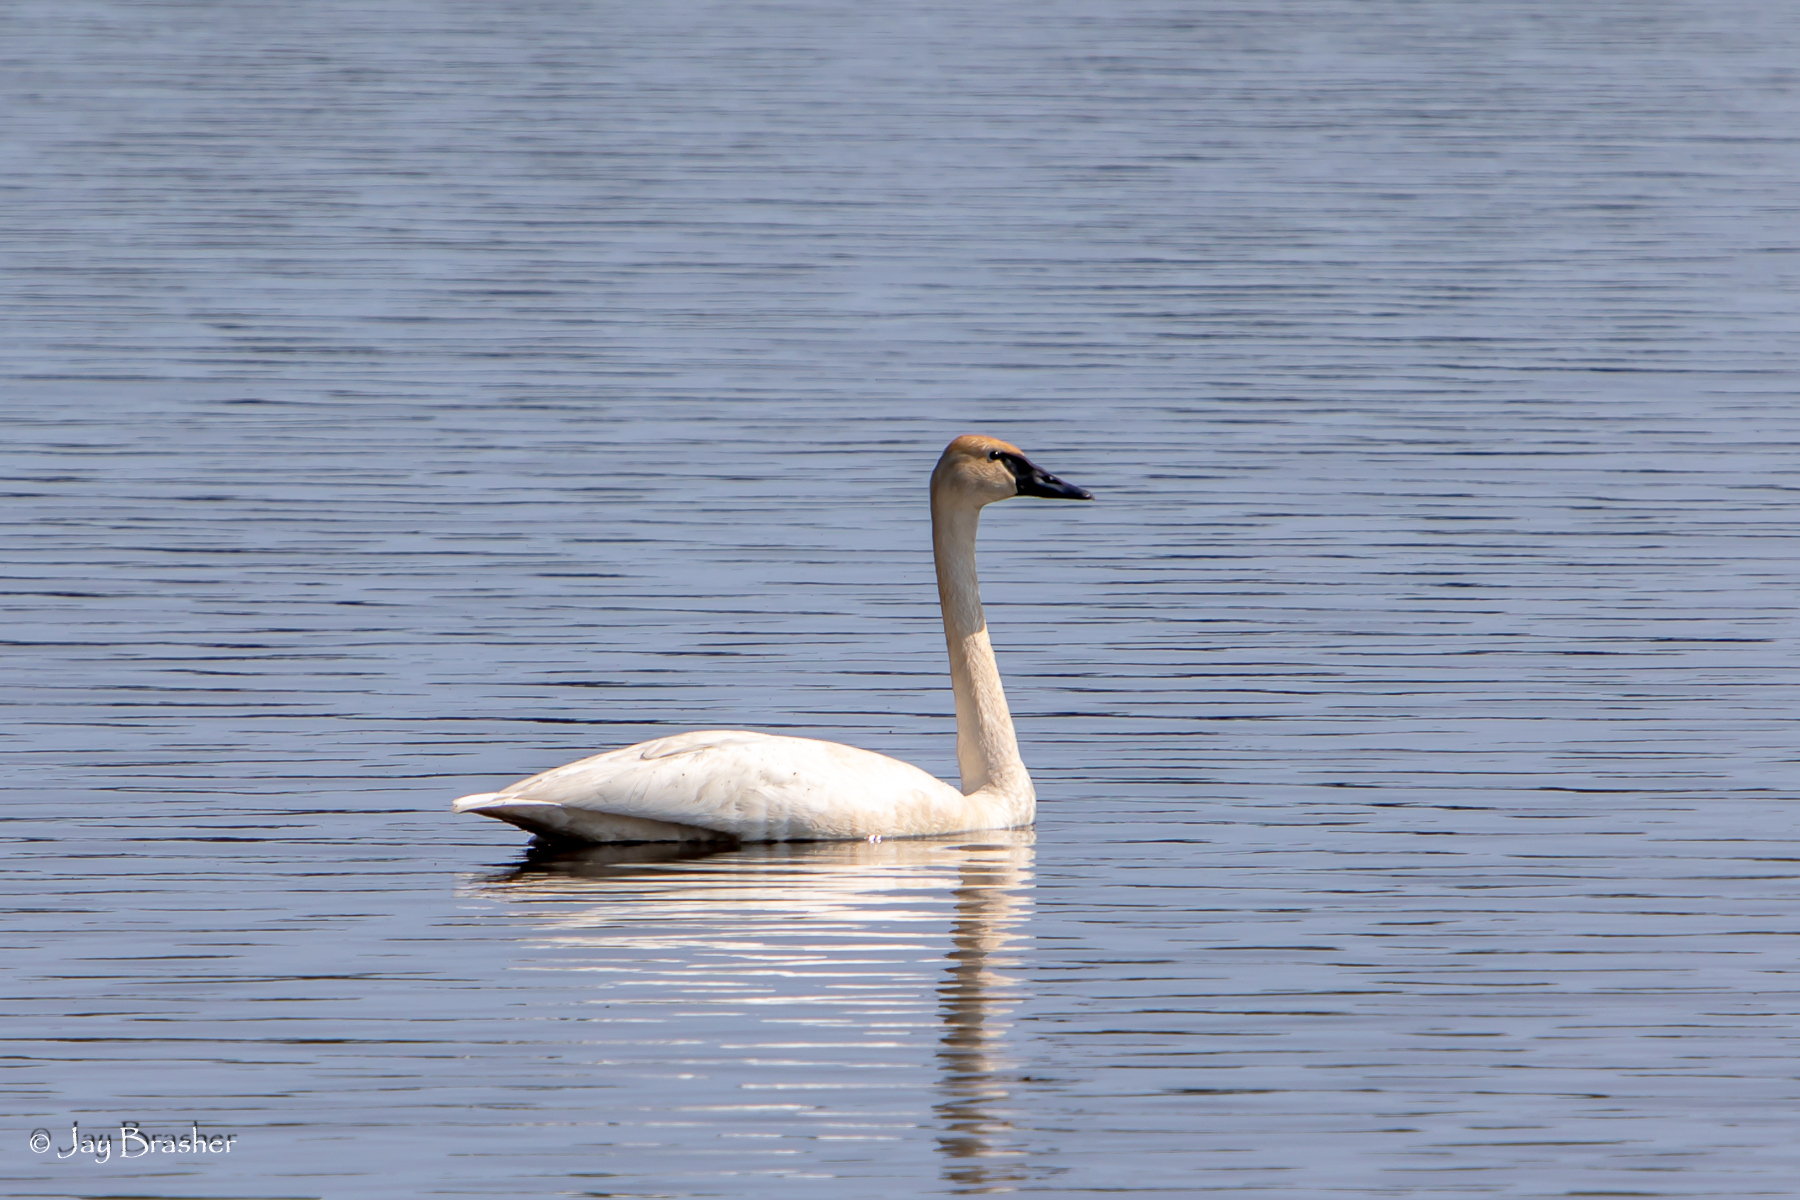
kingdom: Animalia
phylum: Chordata
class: Aves
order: Anseriformes
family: Anatidae
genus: Cygnus
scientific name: Cygnus buccinator
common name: Trumpeter swan
